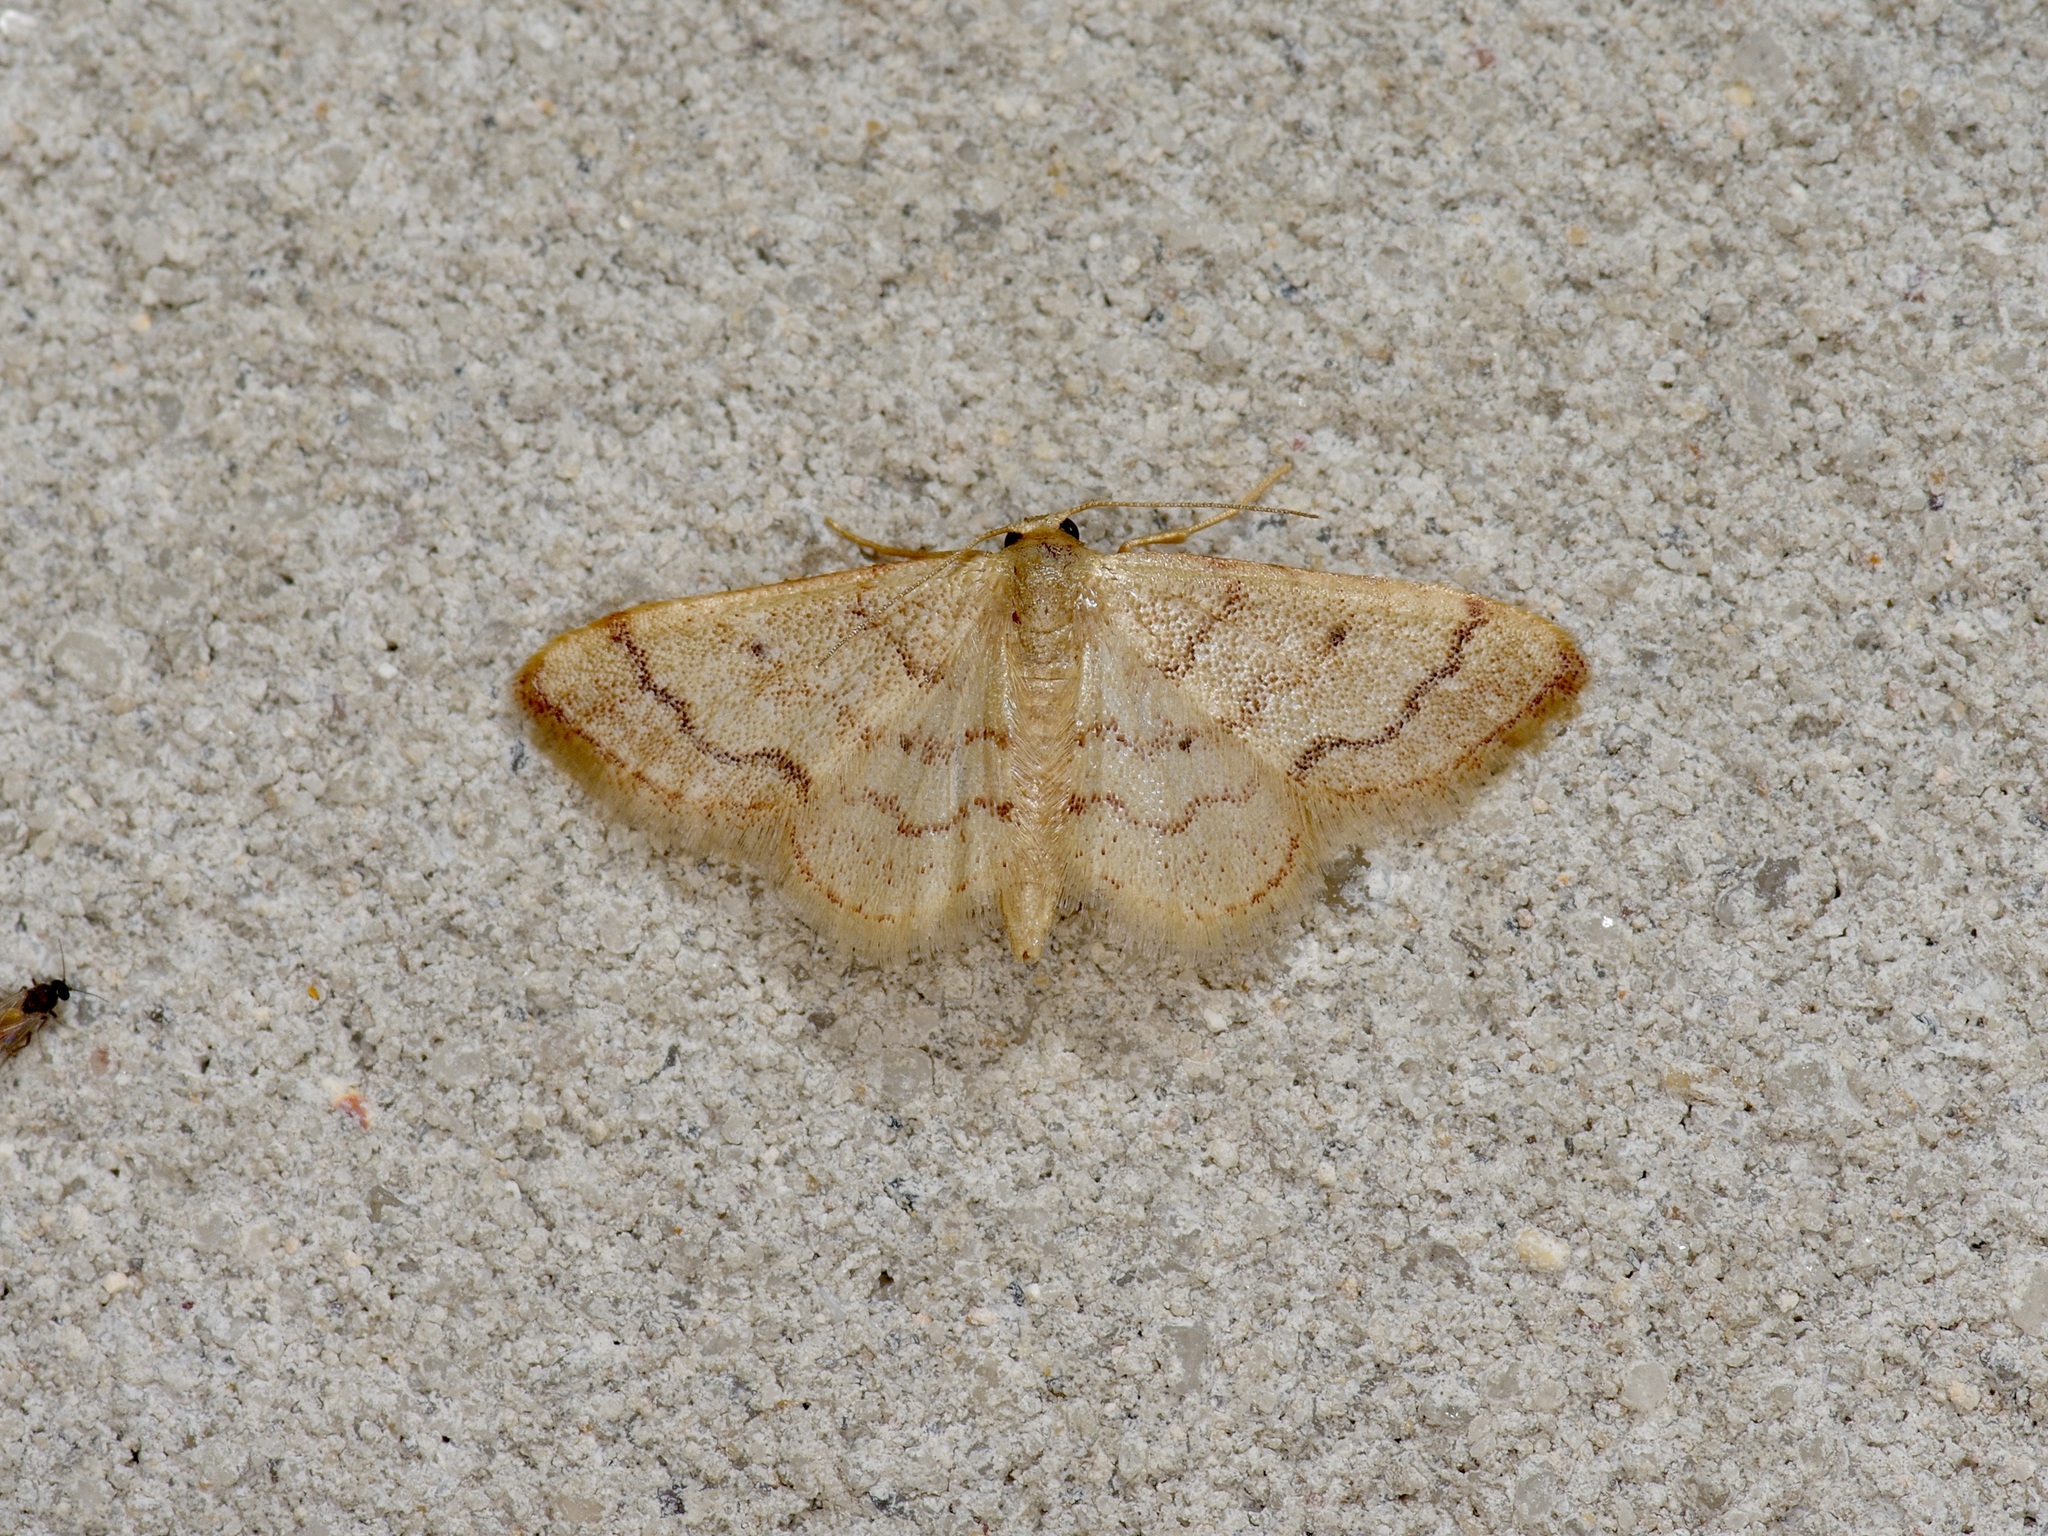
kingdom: Animalia
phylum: Arthropoda
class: Insecta
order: Lepidoptera
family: Geometridae
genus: Idaea
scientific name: Idaea demissaria
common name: Red-bordered wave
